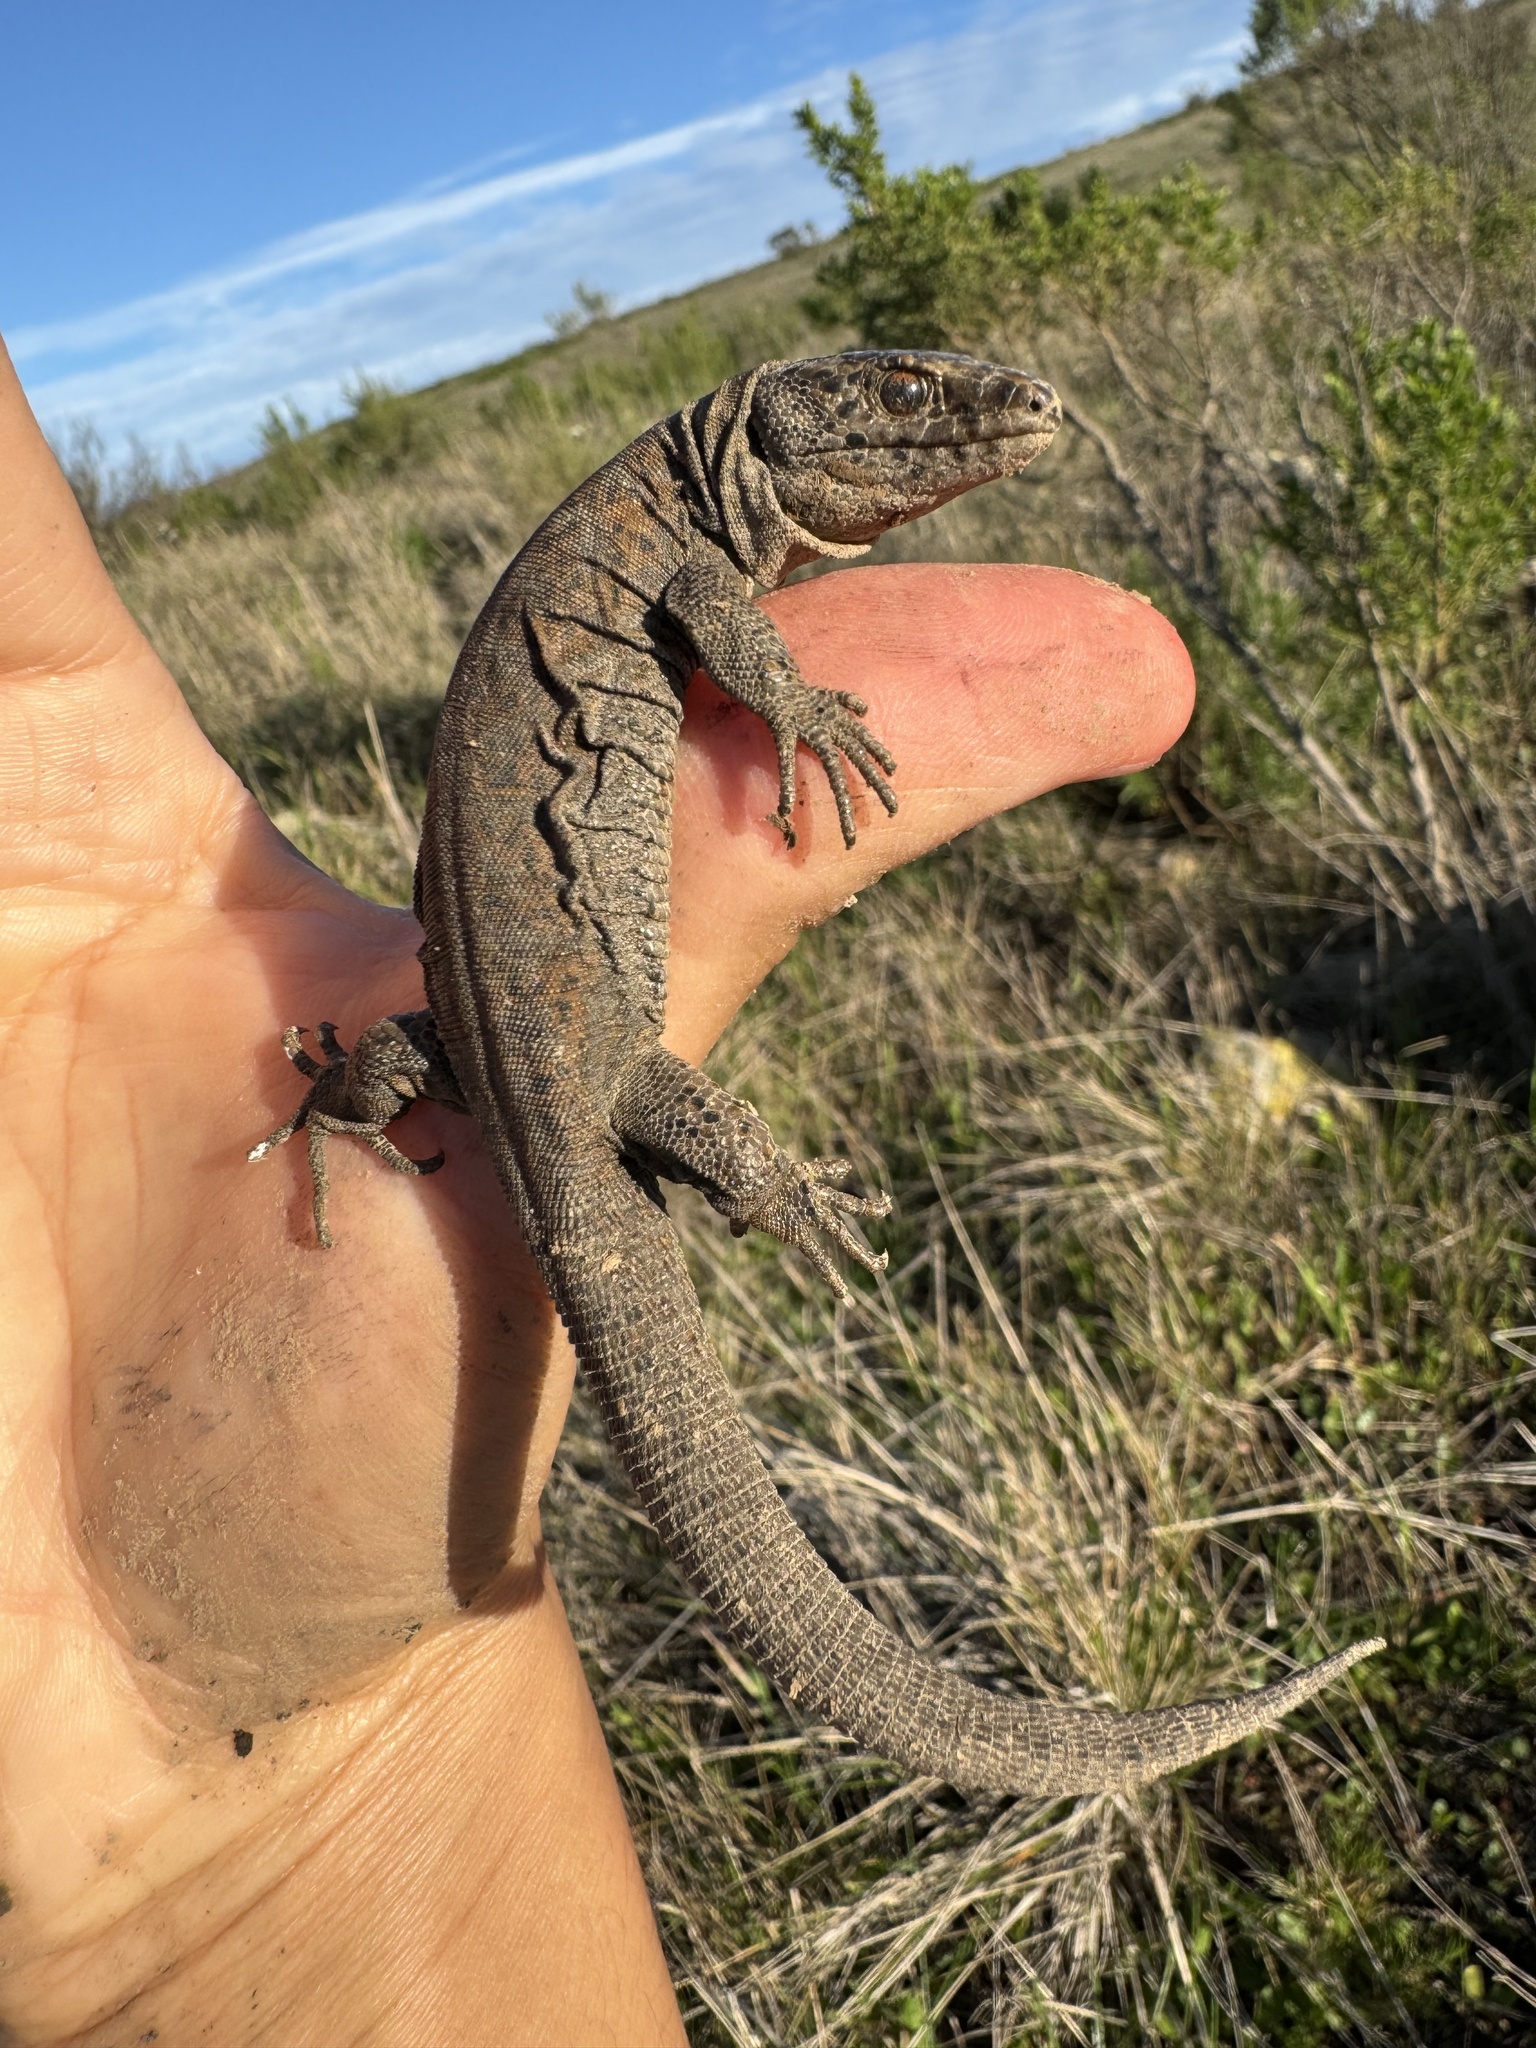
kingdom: Animalia
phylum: Chordata
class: Squamata
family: Xantusiidae
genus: Xantusia
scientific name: Xantusia riversiana
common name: Island night lizard
